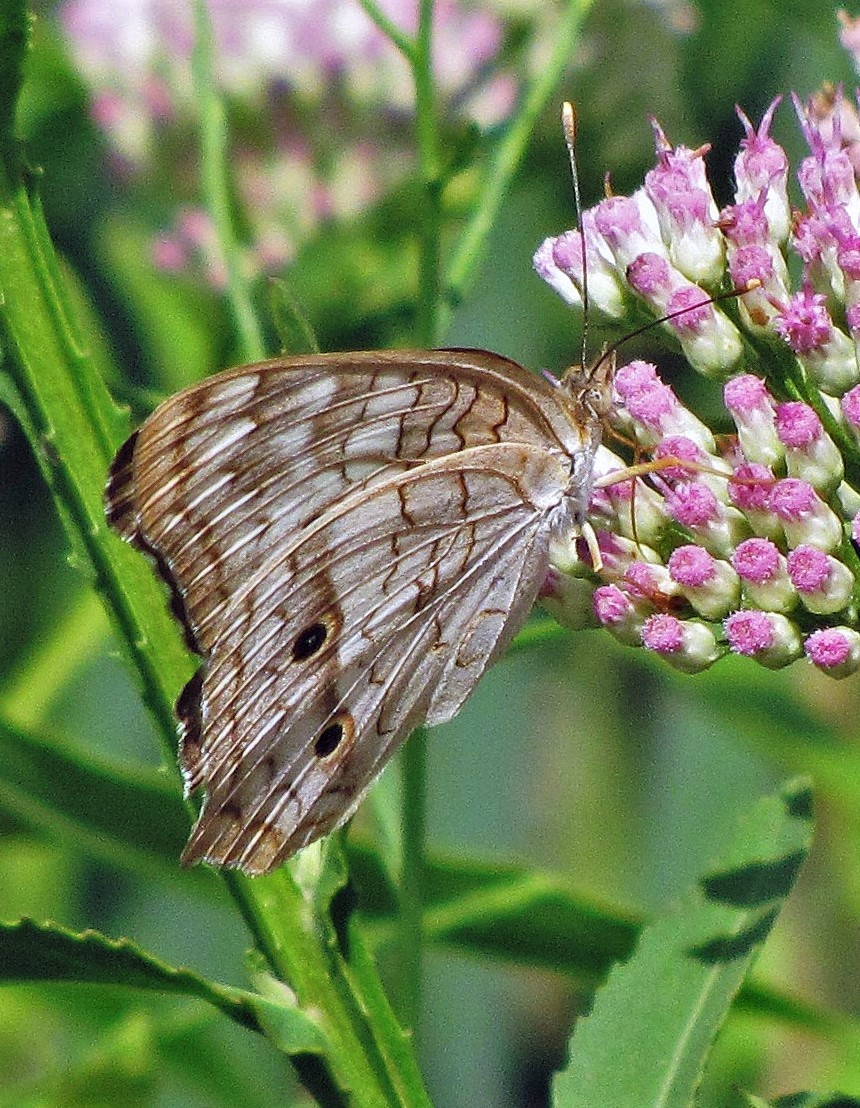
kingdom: Animalia
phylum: Arthropoda
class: Insecta
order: Lepidoptera
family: Nymphalidae
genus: Anartia
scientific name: Anartia jatrophae
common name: White peacock
